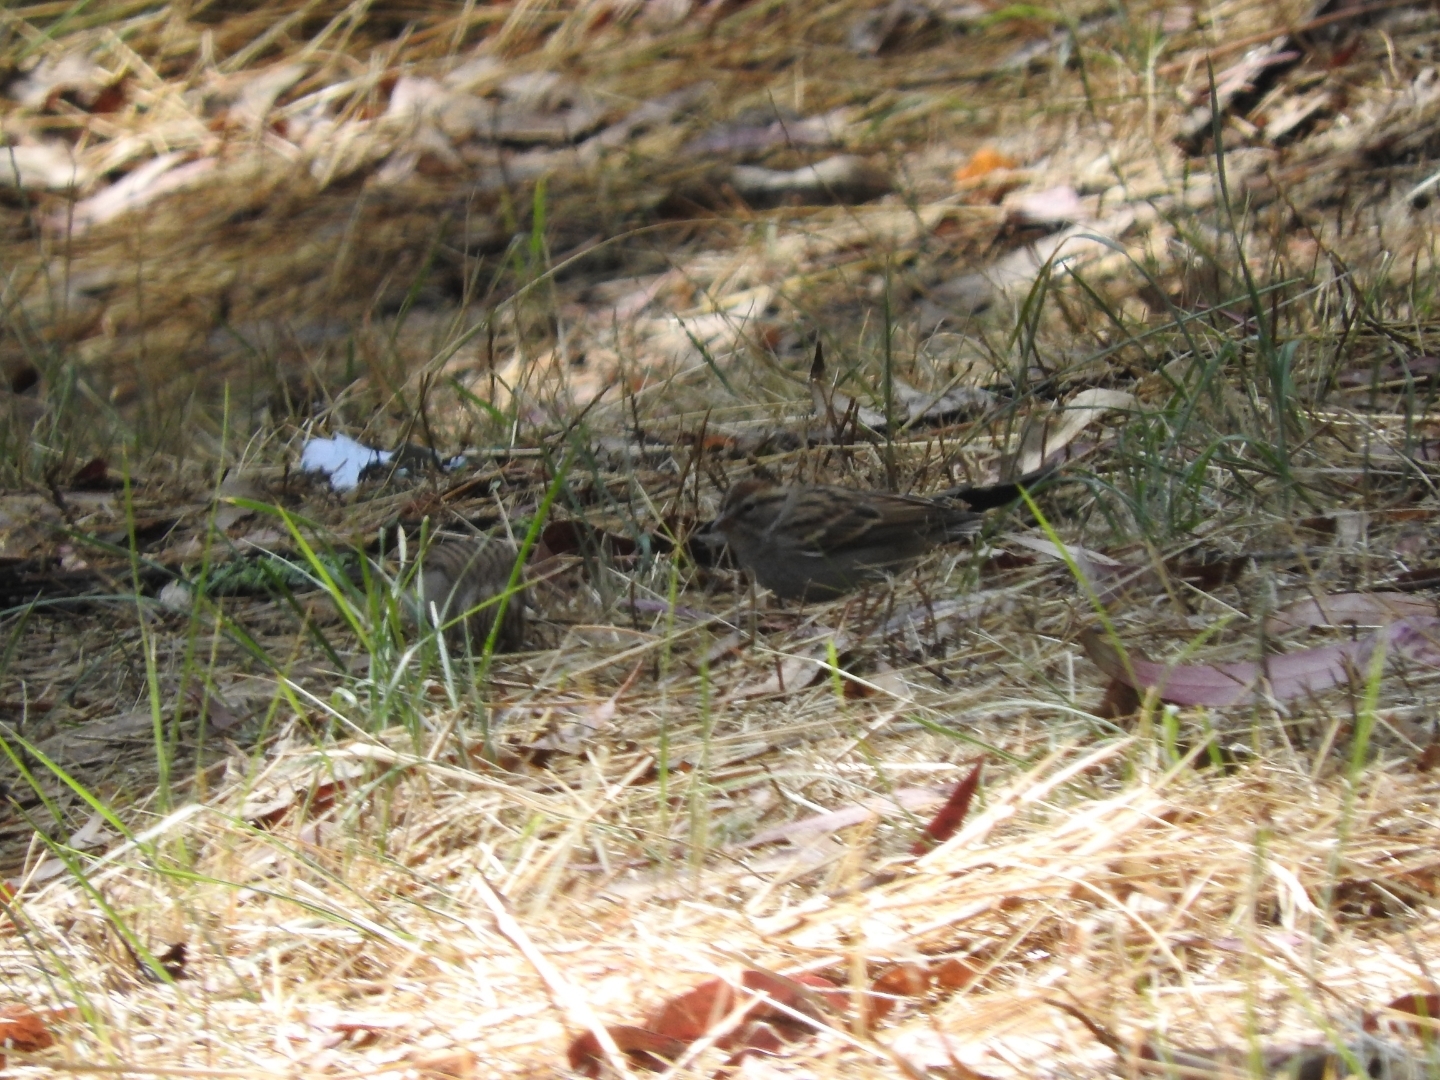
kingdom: Animalia
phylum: Chordata
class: Aves
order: Passeriformes
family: Passerellidae
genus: Spizella
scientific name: Spizella passerina
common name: Chipping sparrow
